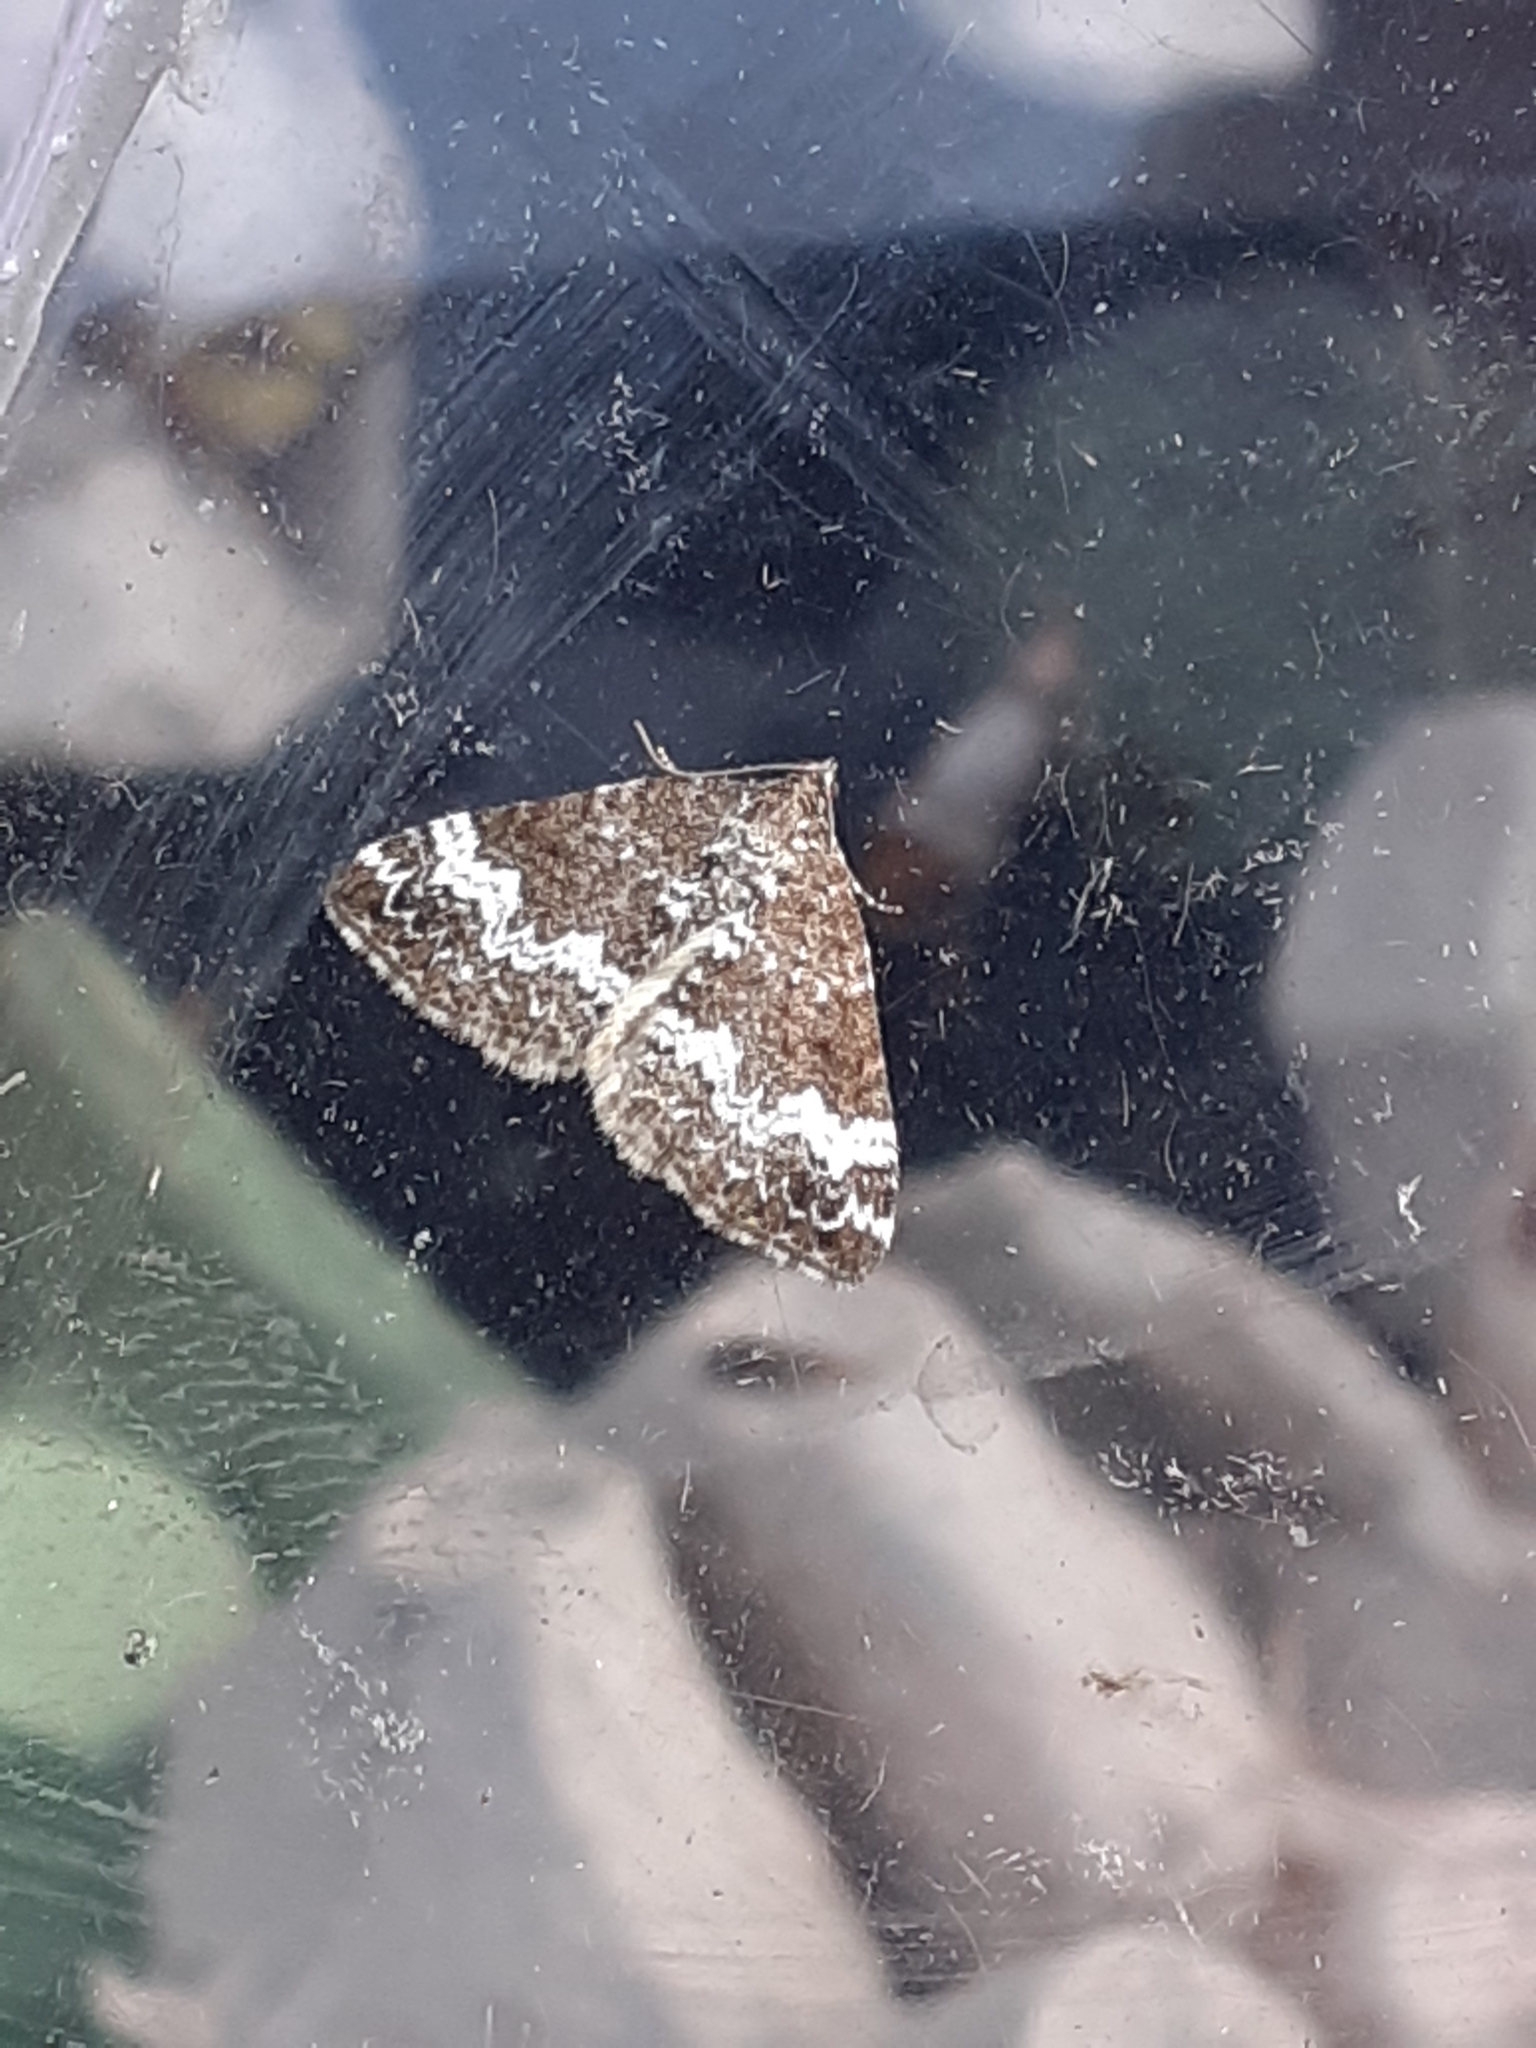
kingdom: Animalia
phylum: Arthropoda
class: Insecta
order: Lepidoptera
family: Geometridae
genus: Perizoma
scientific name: Perizoma alchemillata
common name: Small rivulet
